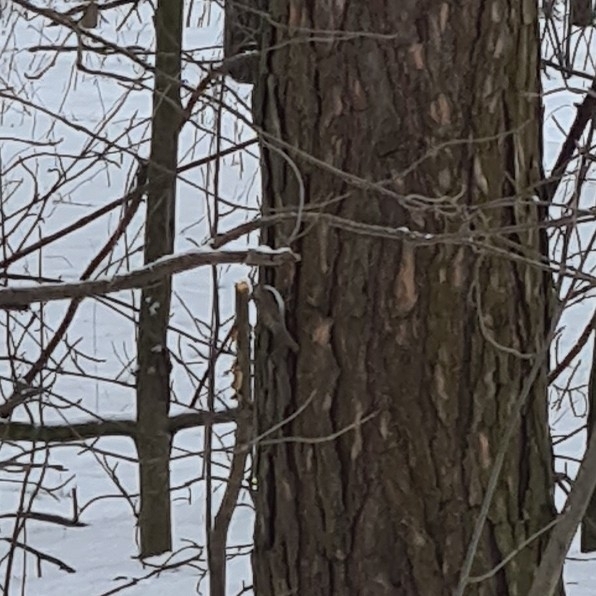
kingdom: Animalia
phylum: Chordata
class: Aves
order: Passeriformes
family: Certhiidae
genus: Certhia
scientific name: Certhia familiaris
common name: Eurasian treecreeper
